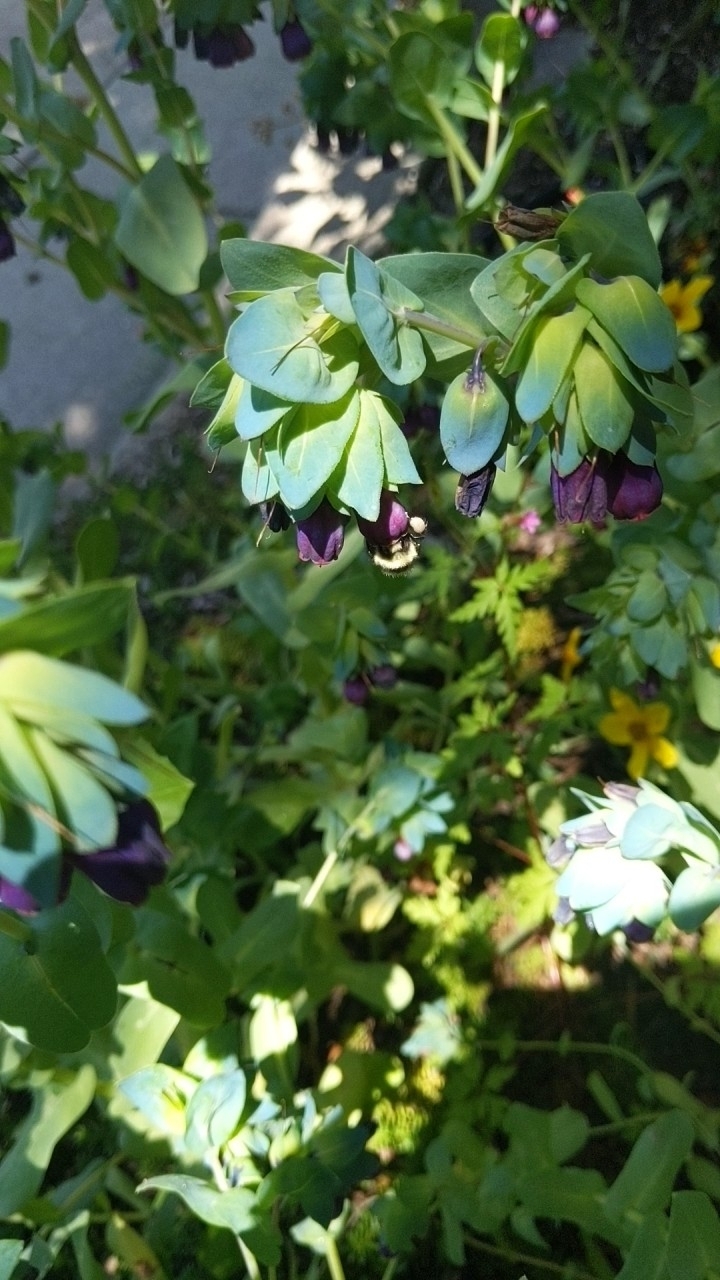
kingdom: Animalia
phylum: Arthropoda
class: Insecta
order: Hymenoptera
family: Apidae
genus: Bombus
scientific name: Bombus melanopygus
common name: Black tail bumble bee
